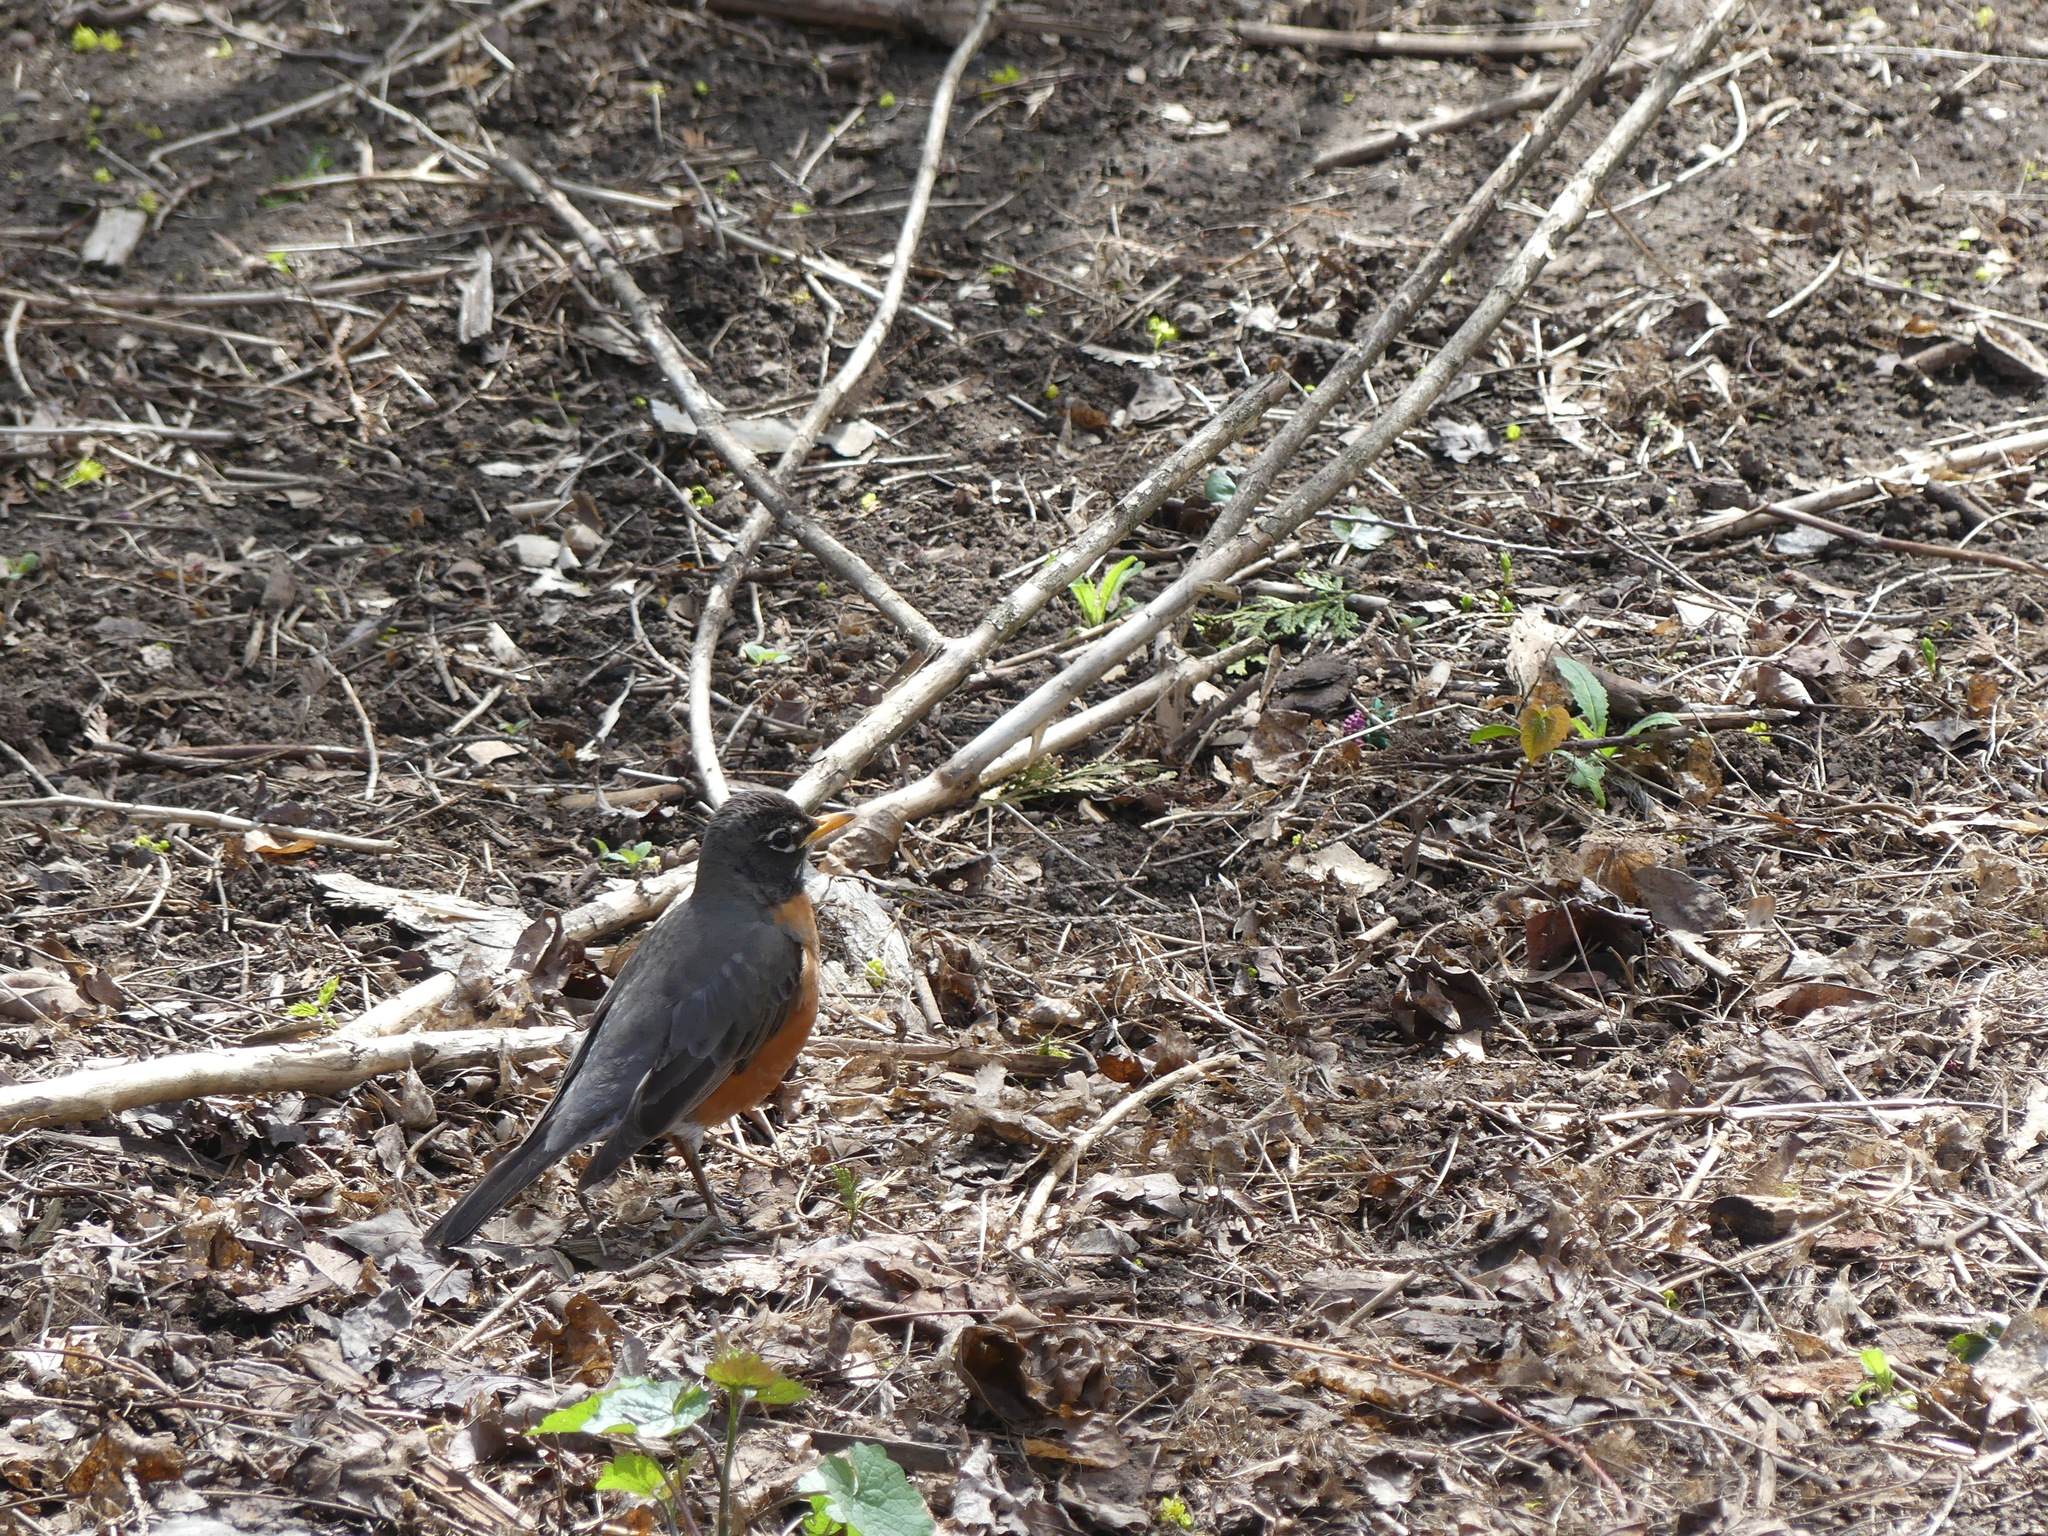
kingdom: Animalia
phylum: Chordata
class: Aves
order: Passeriformes
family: Turdidae
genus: Turdus
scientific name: Turdus migratorius
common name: American robin
